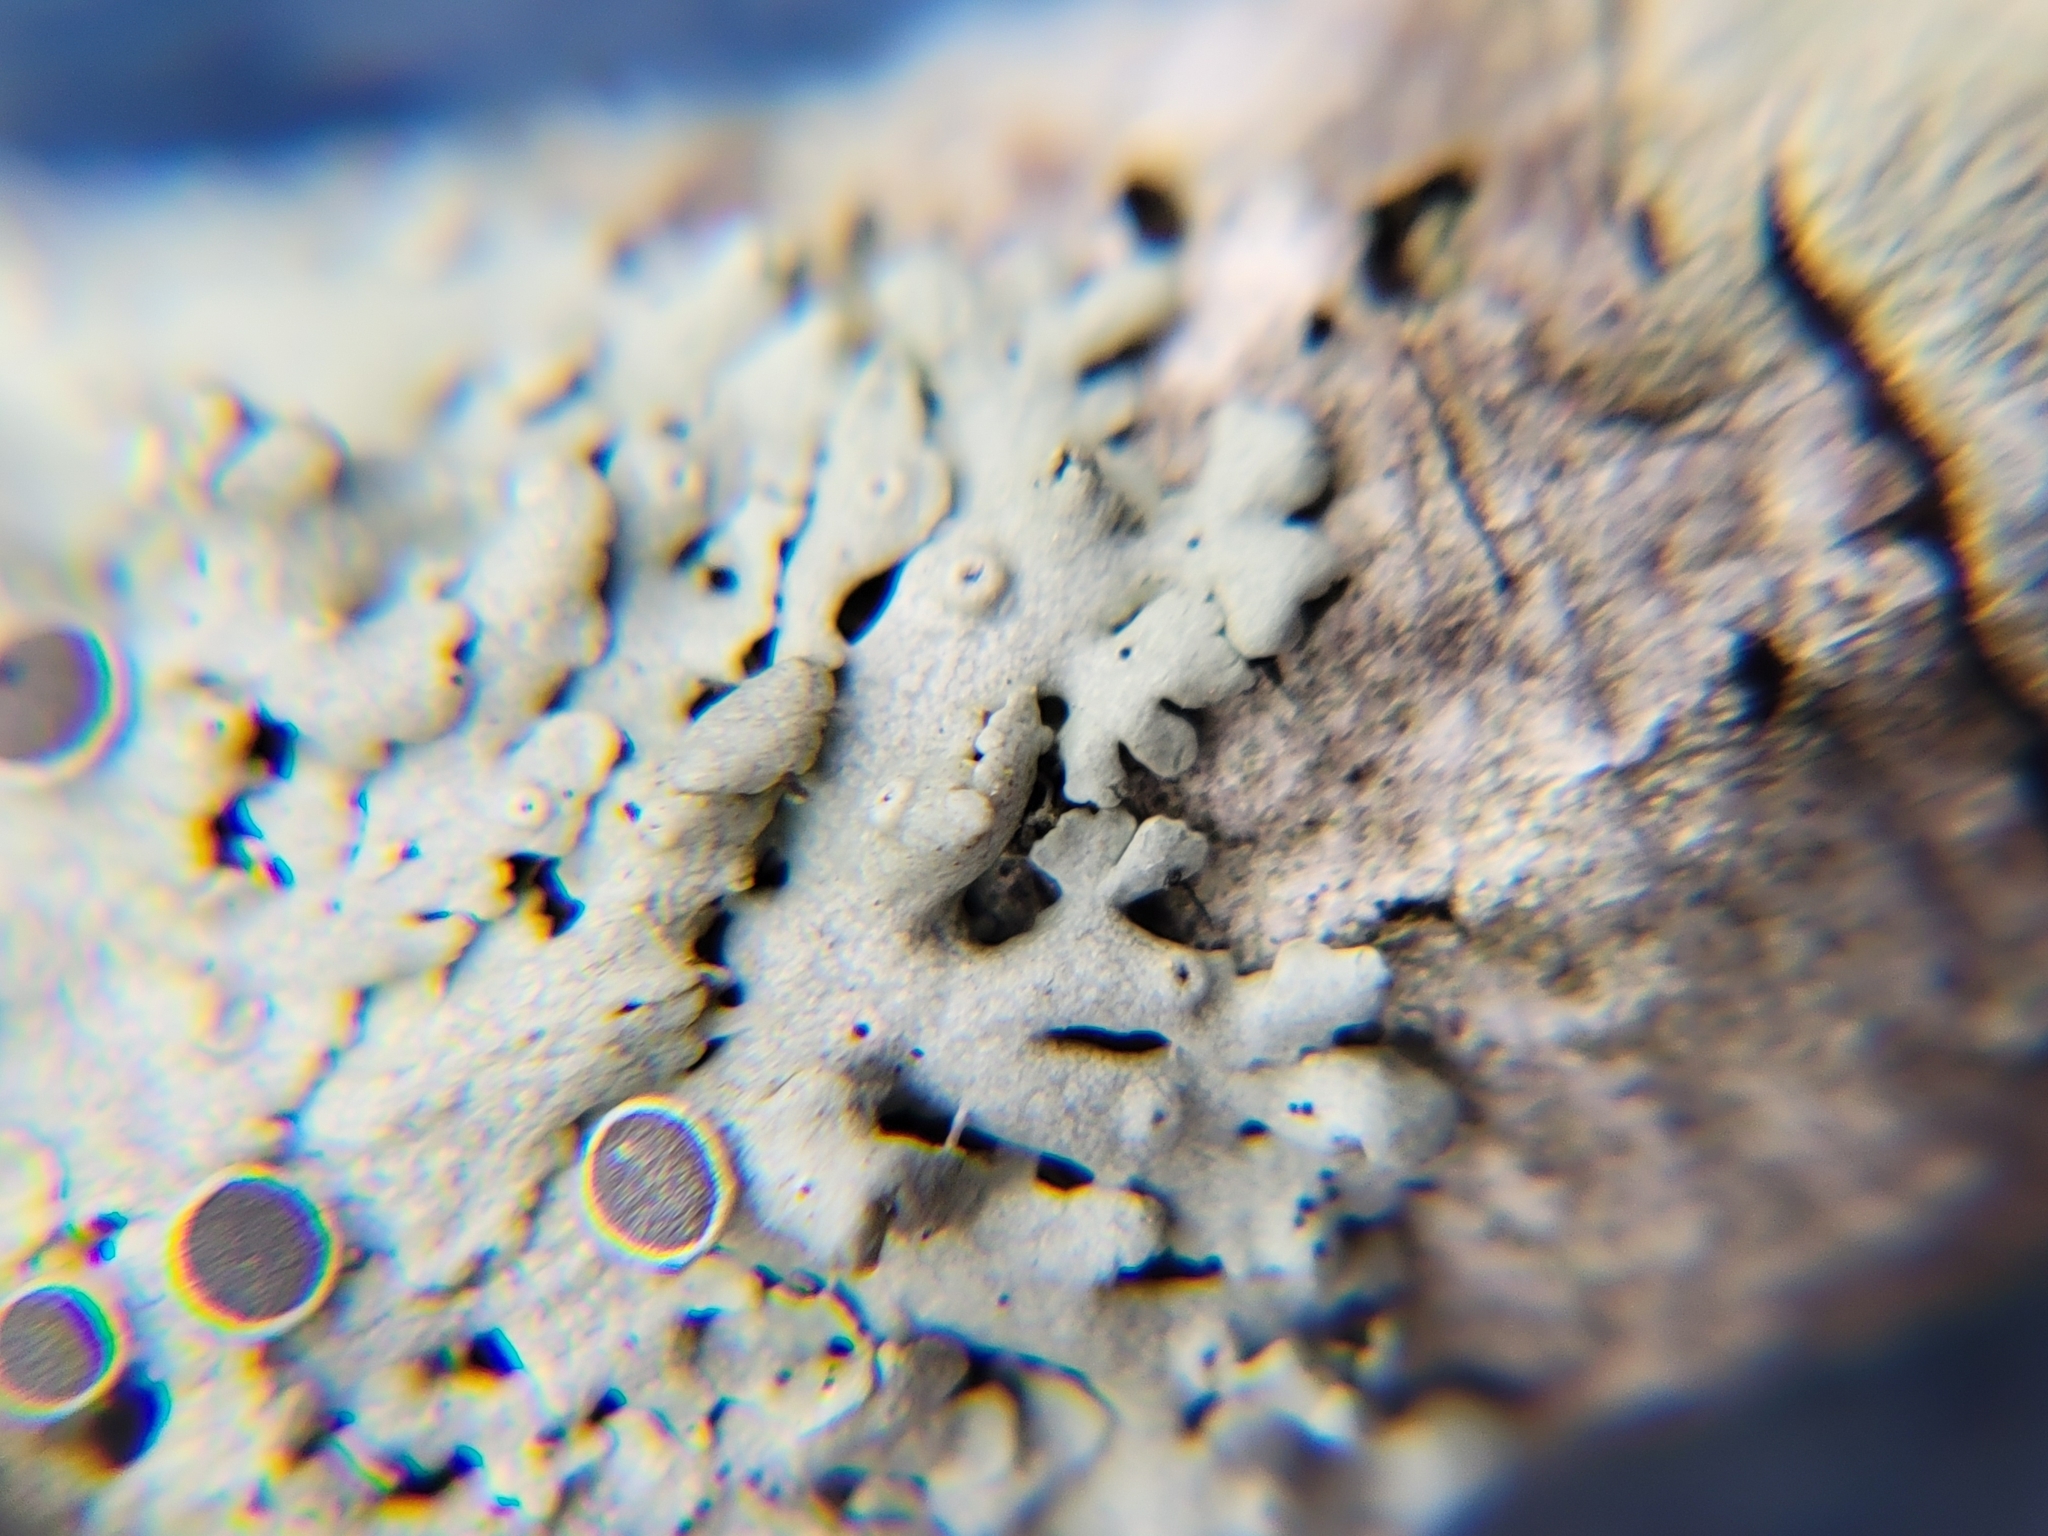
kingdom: Fungi
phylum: Ascomycota
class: Lecanoromycetes
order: Caliciales
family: Physciaceae
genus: Physcia
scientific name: Physcia pumilior
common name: Lesser gray legs
